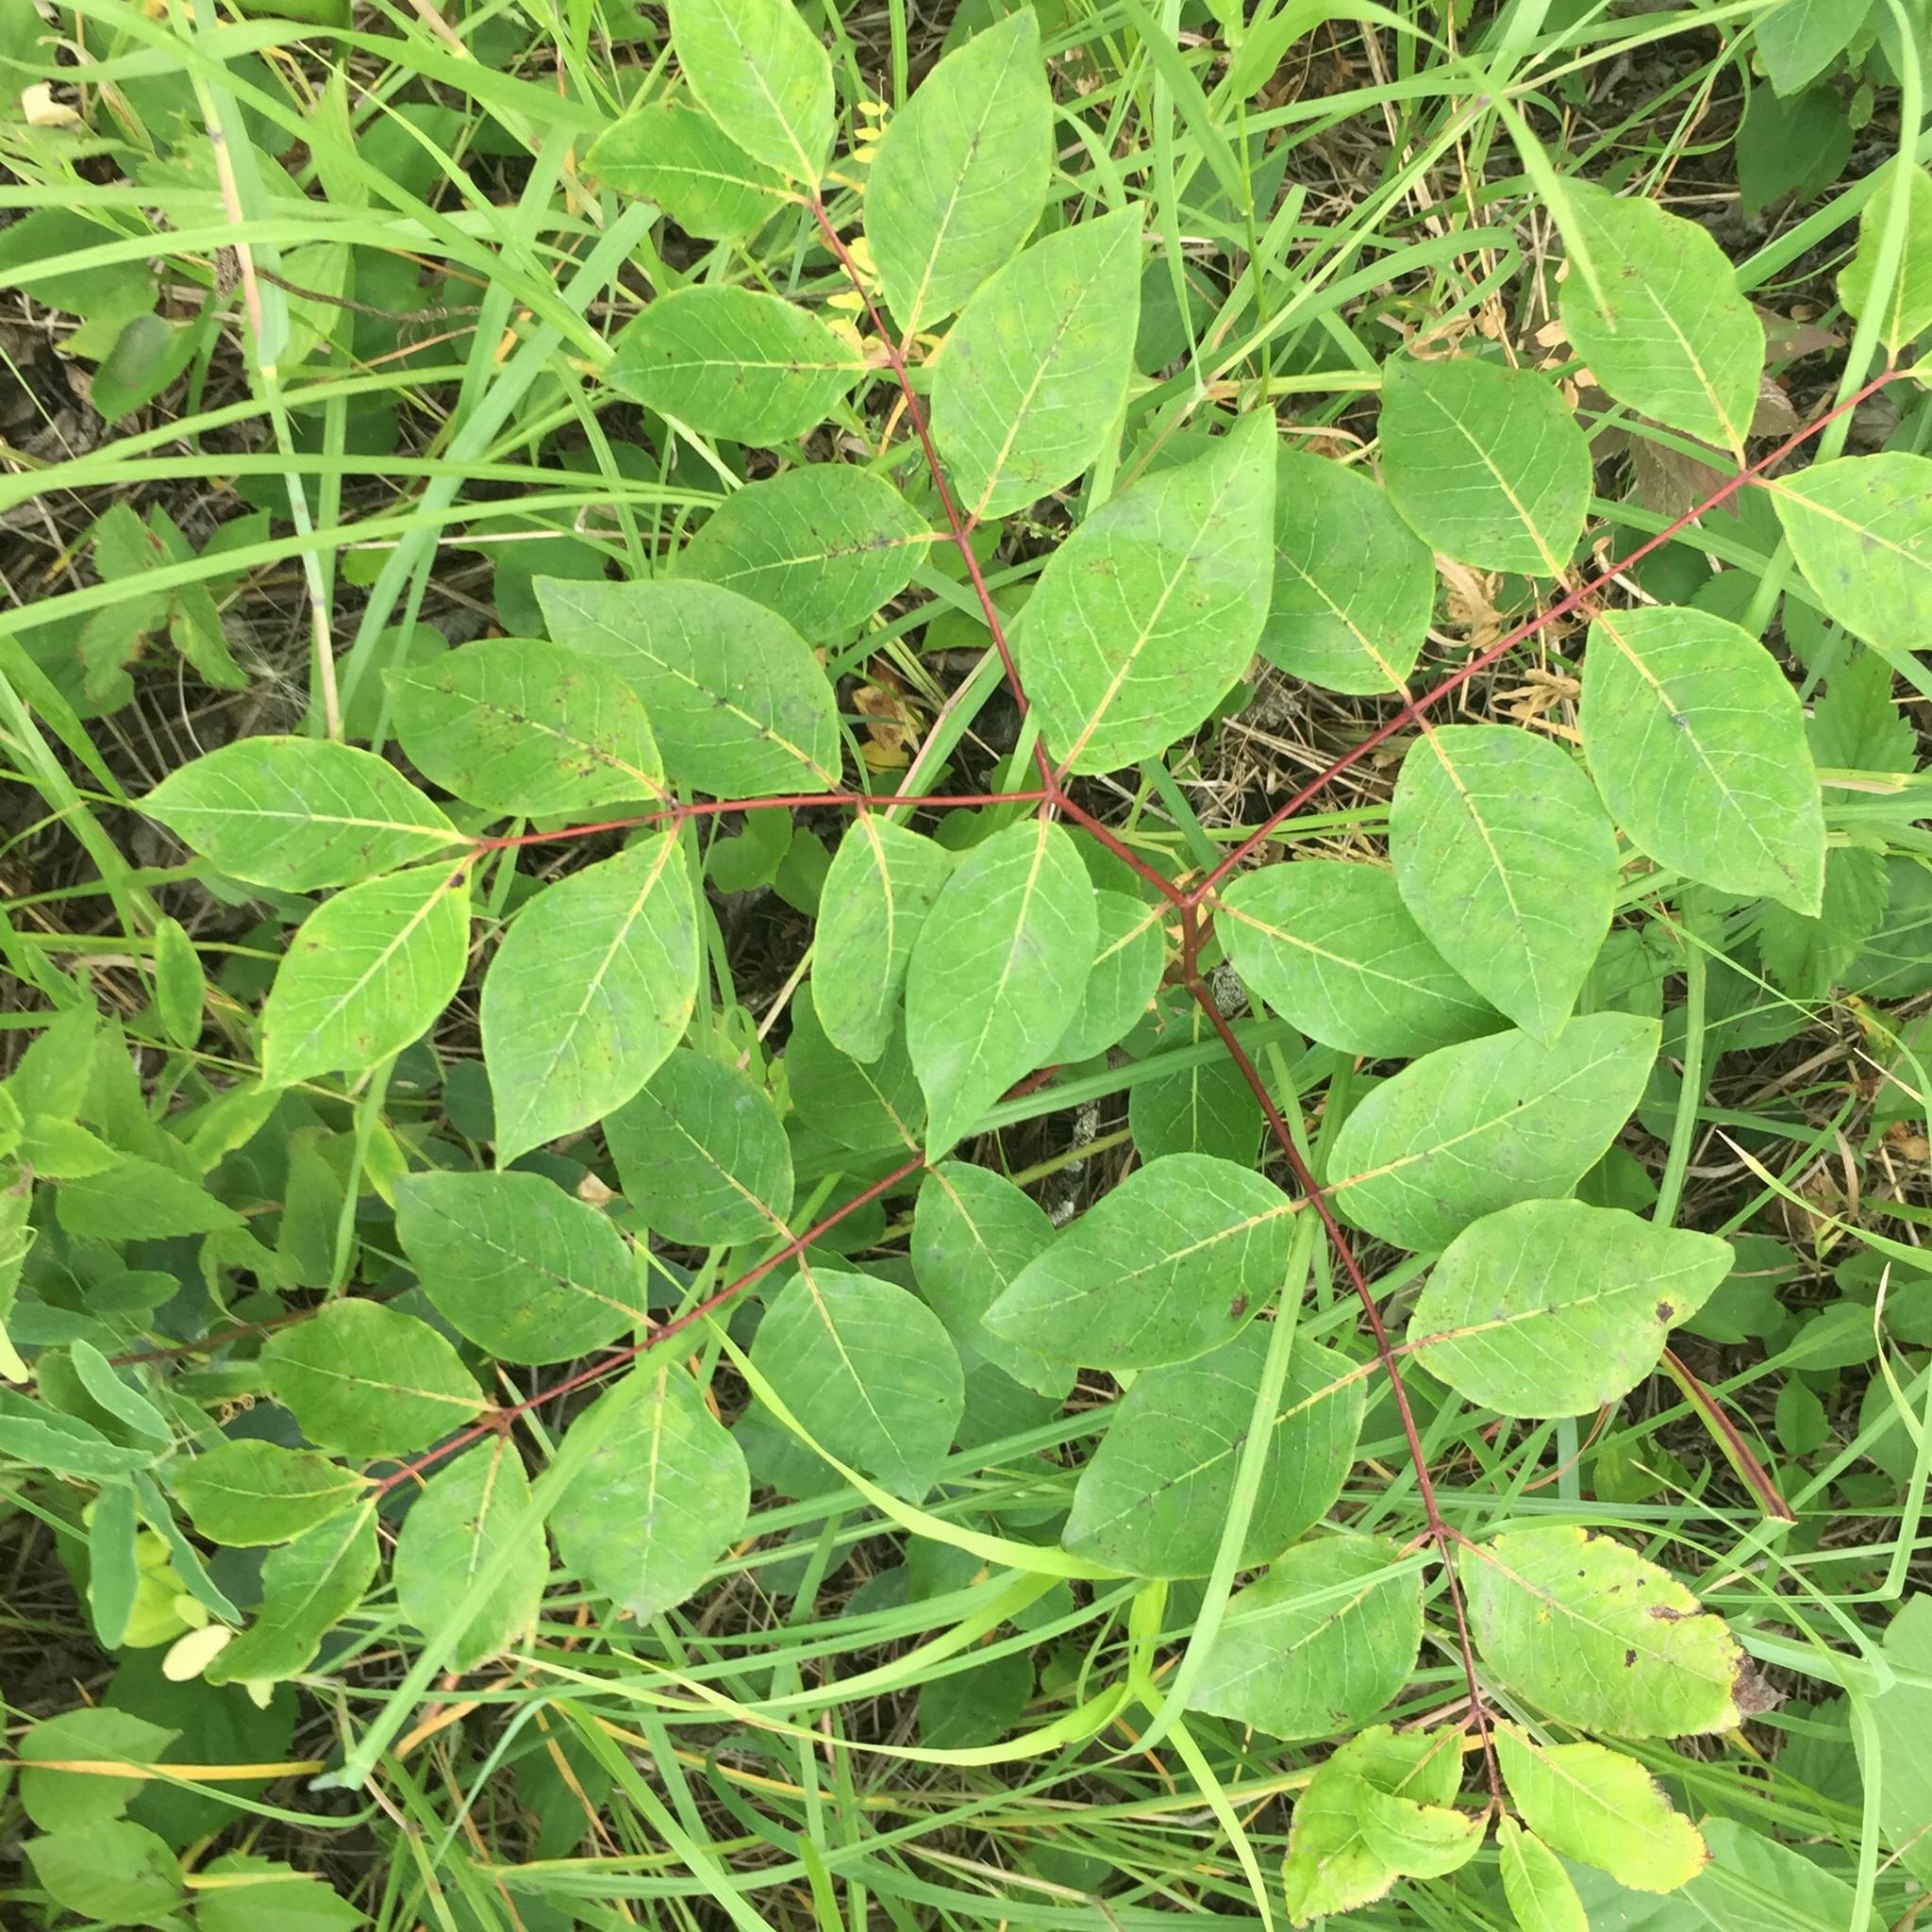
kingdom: Plantae
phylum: Tracheophyta
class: Magnoliopsida
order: Gentianales
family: Apocynaceae
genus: Apocynum
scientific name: Apocynum androsaemifolium
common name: Spreading dogbane
